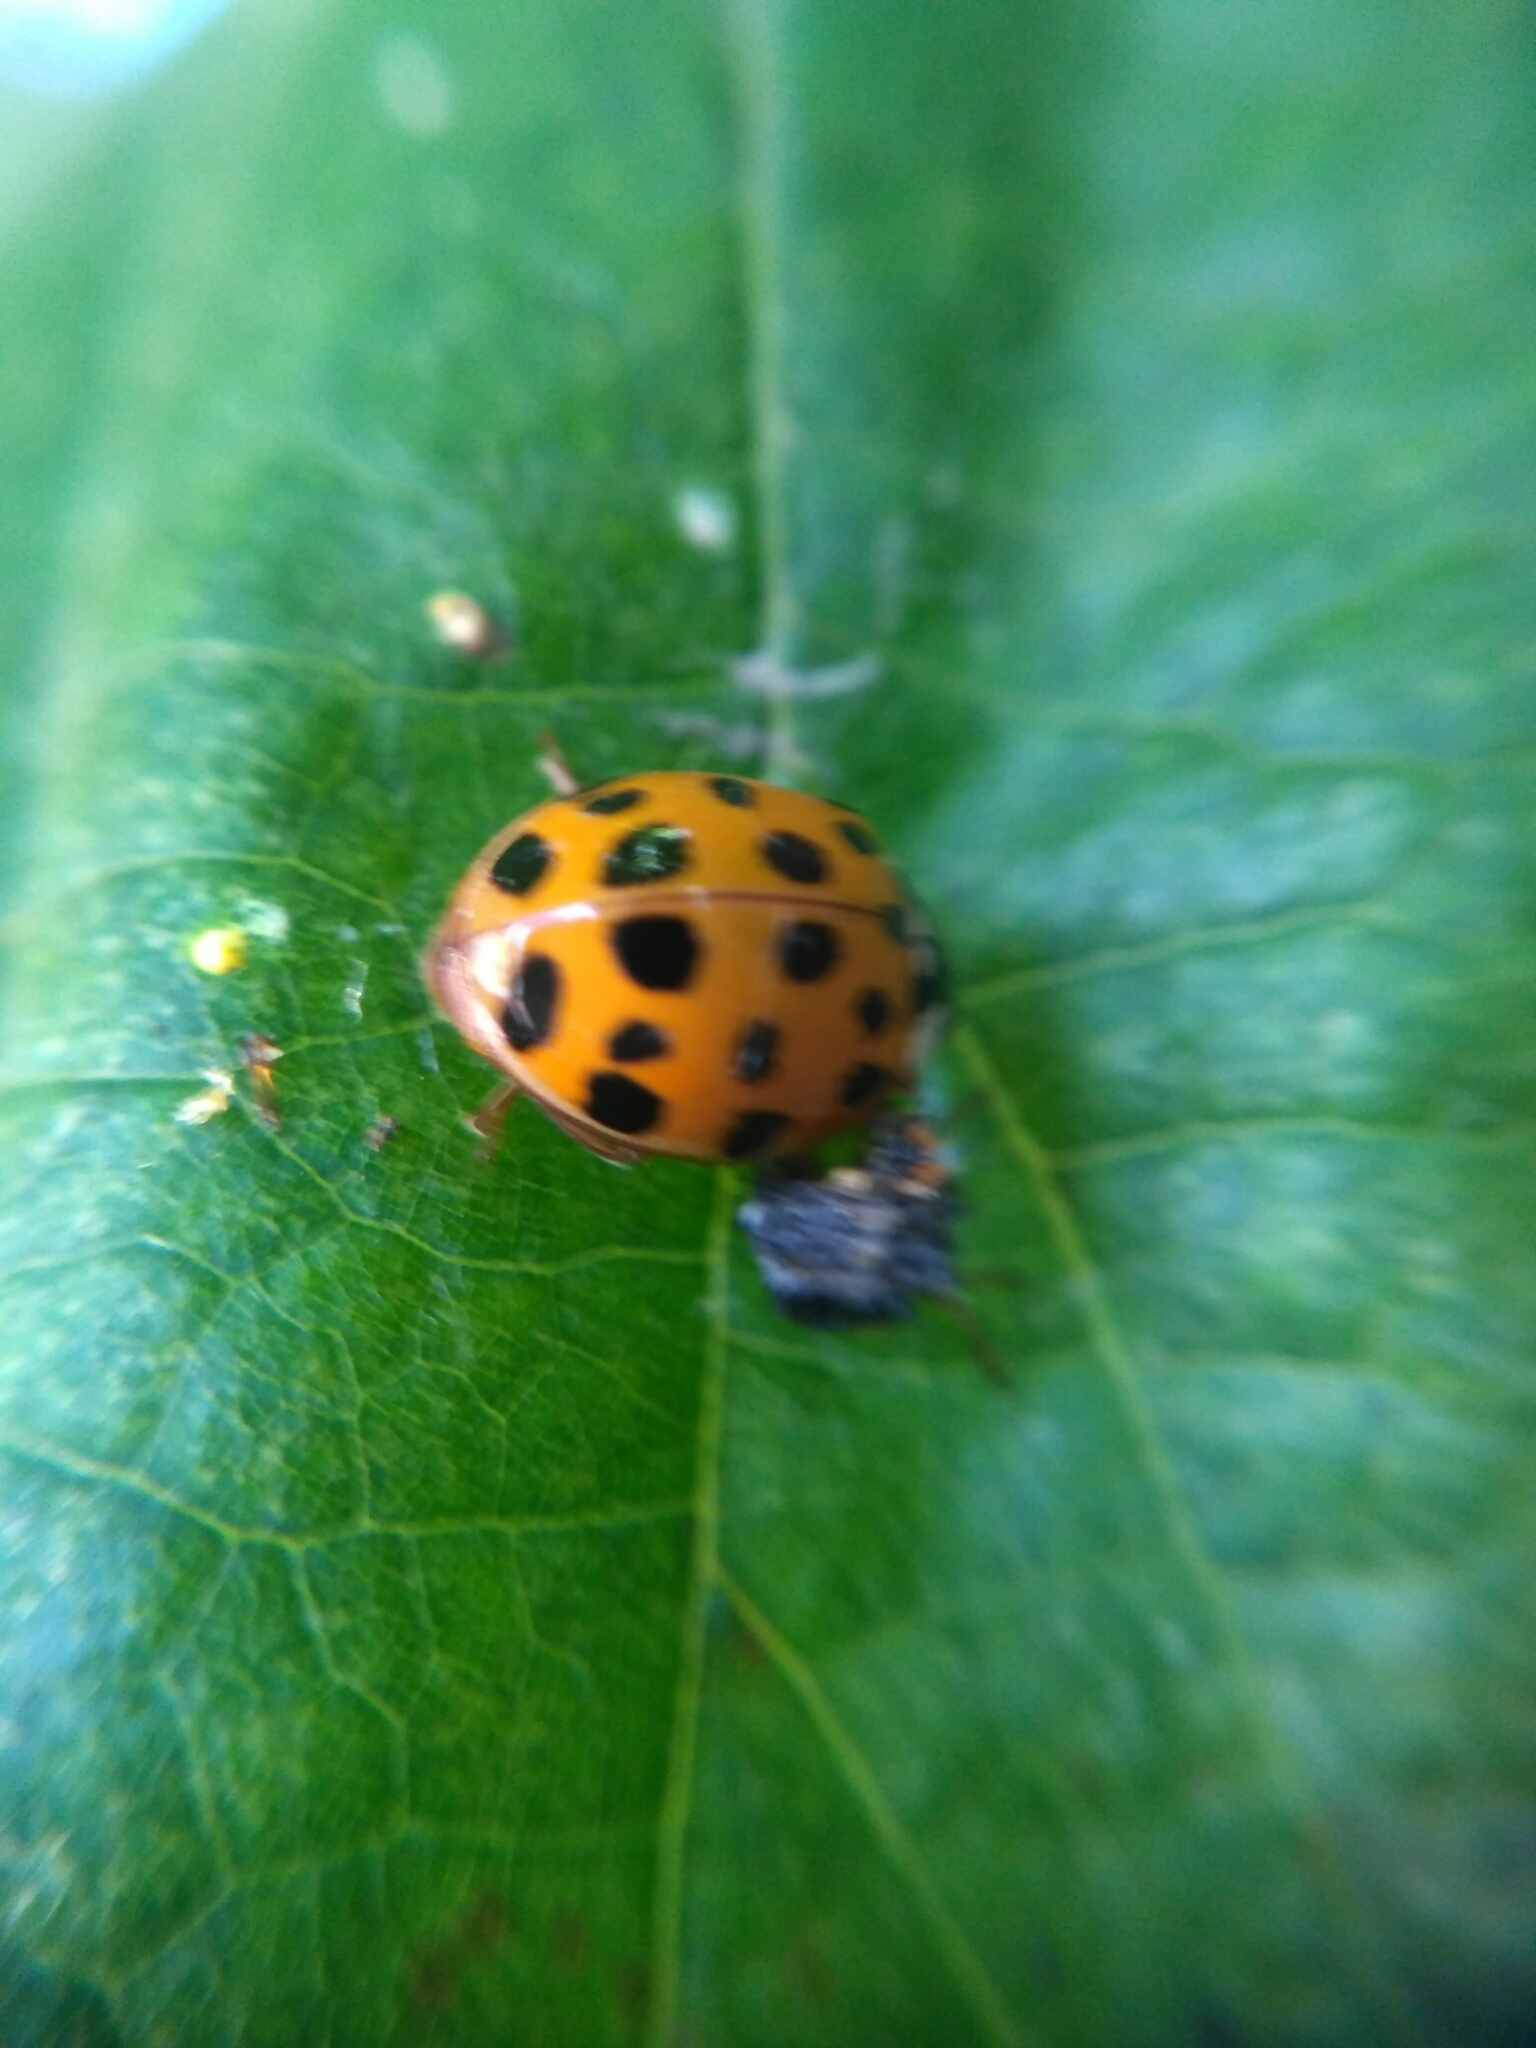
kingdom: Animalia
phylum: Arthropoda
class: Insecta
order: Coleoptera
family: Coccinellidae
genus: Harmonia
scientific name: Harmonia axyridis
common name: Harlequin ladybird
